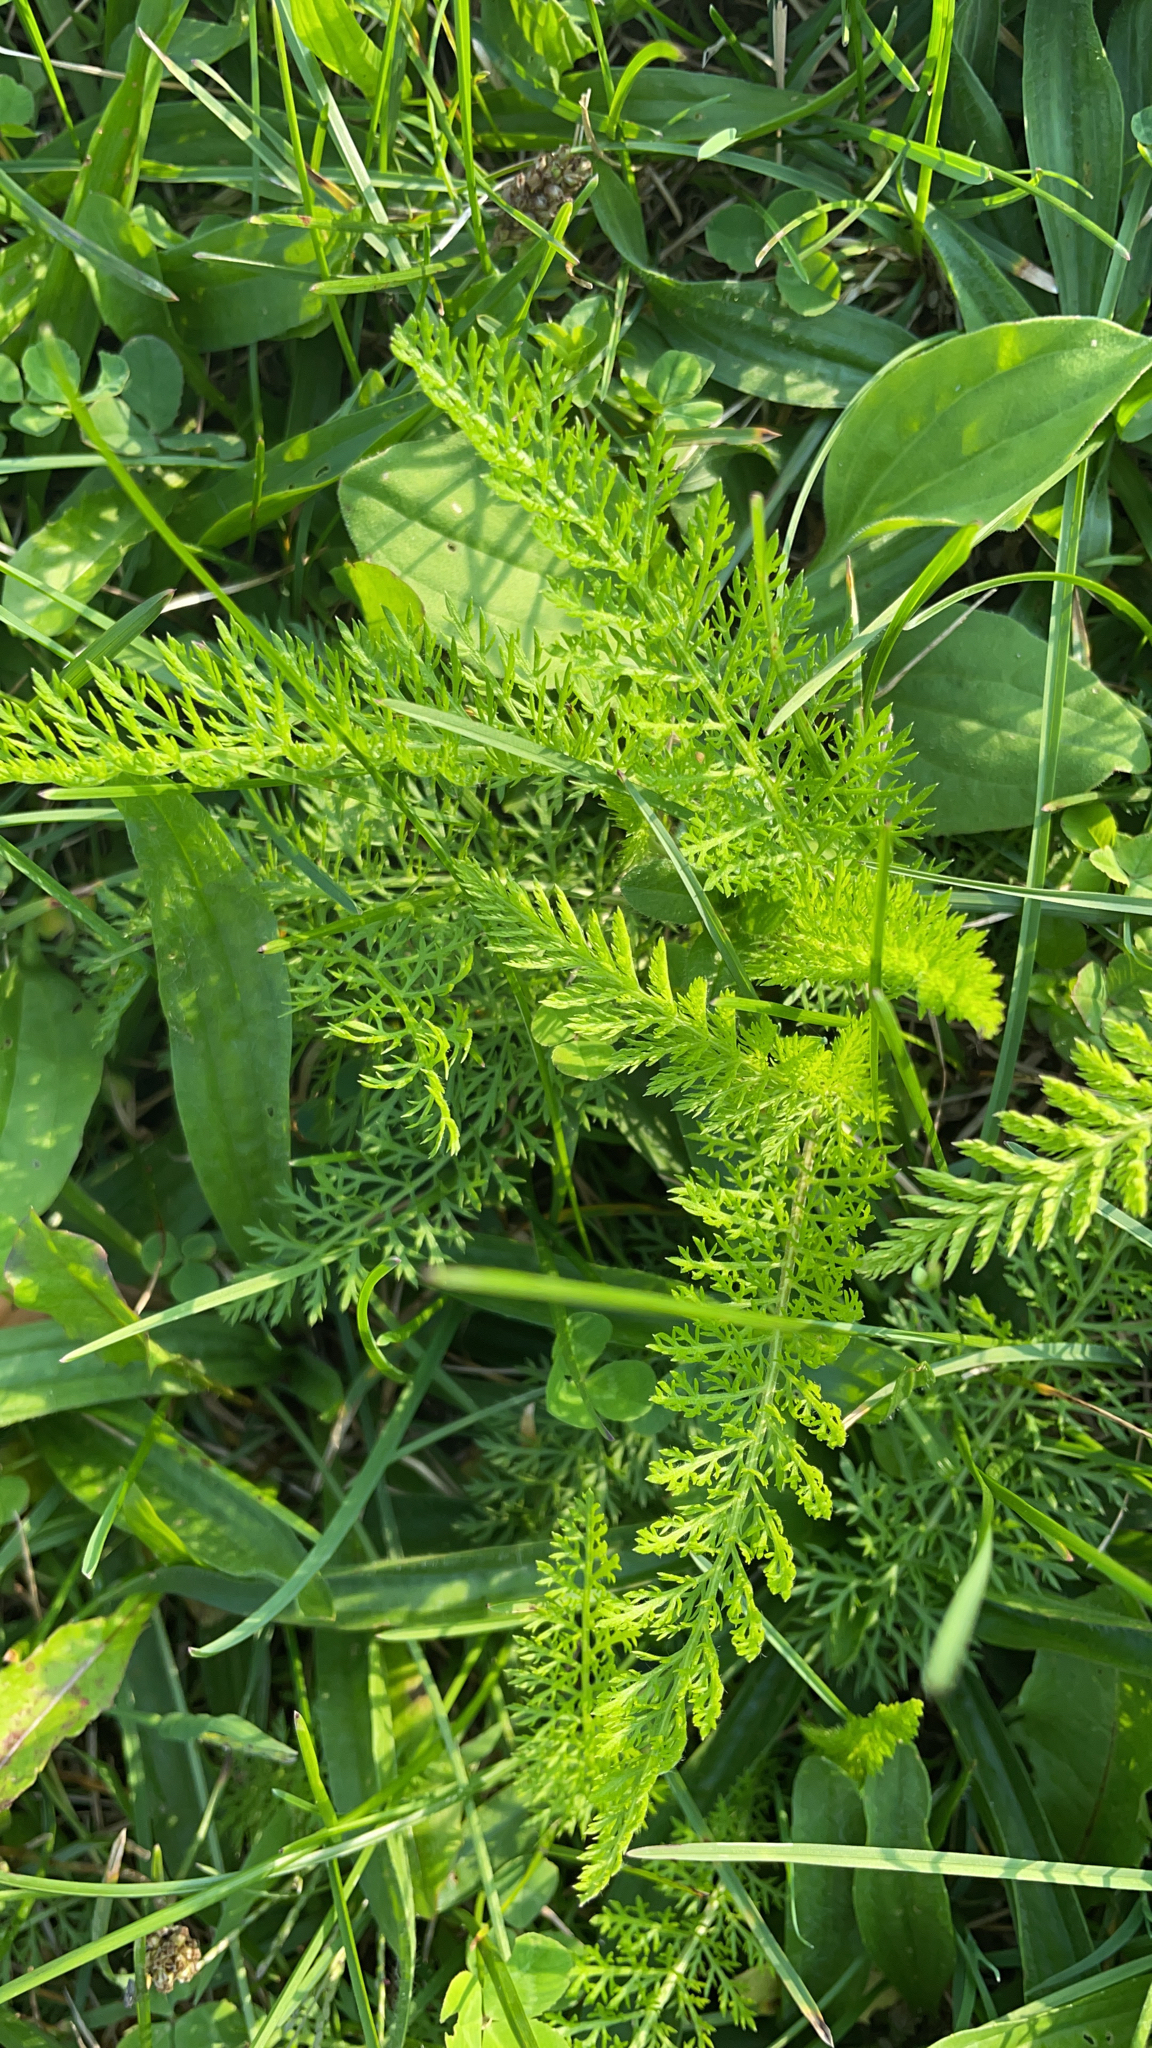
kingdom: Plantae
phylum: Tracheophyta
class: Magnoliopsida
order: Asterales
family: Asteraceae
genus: Achillea
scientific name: Achillea millefolium
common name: Yarrow
